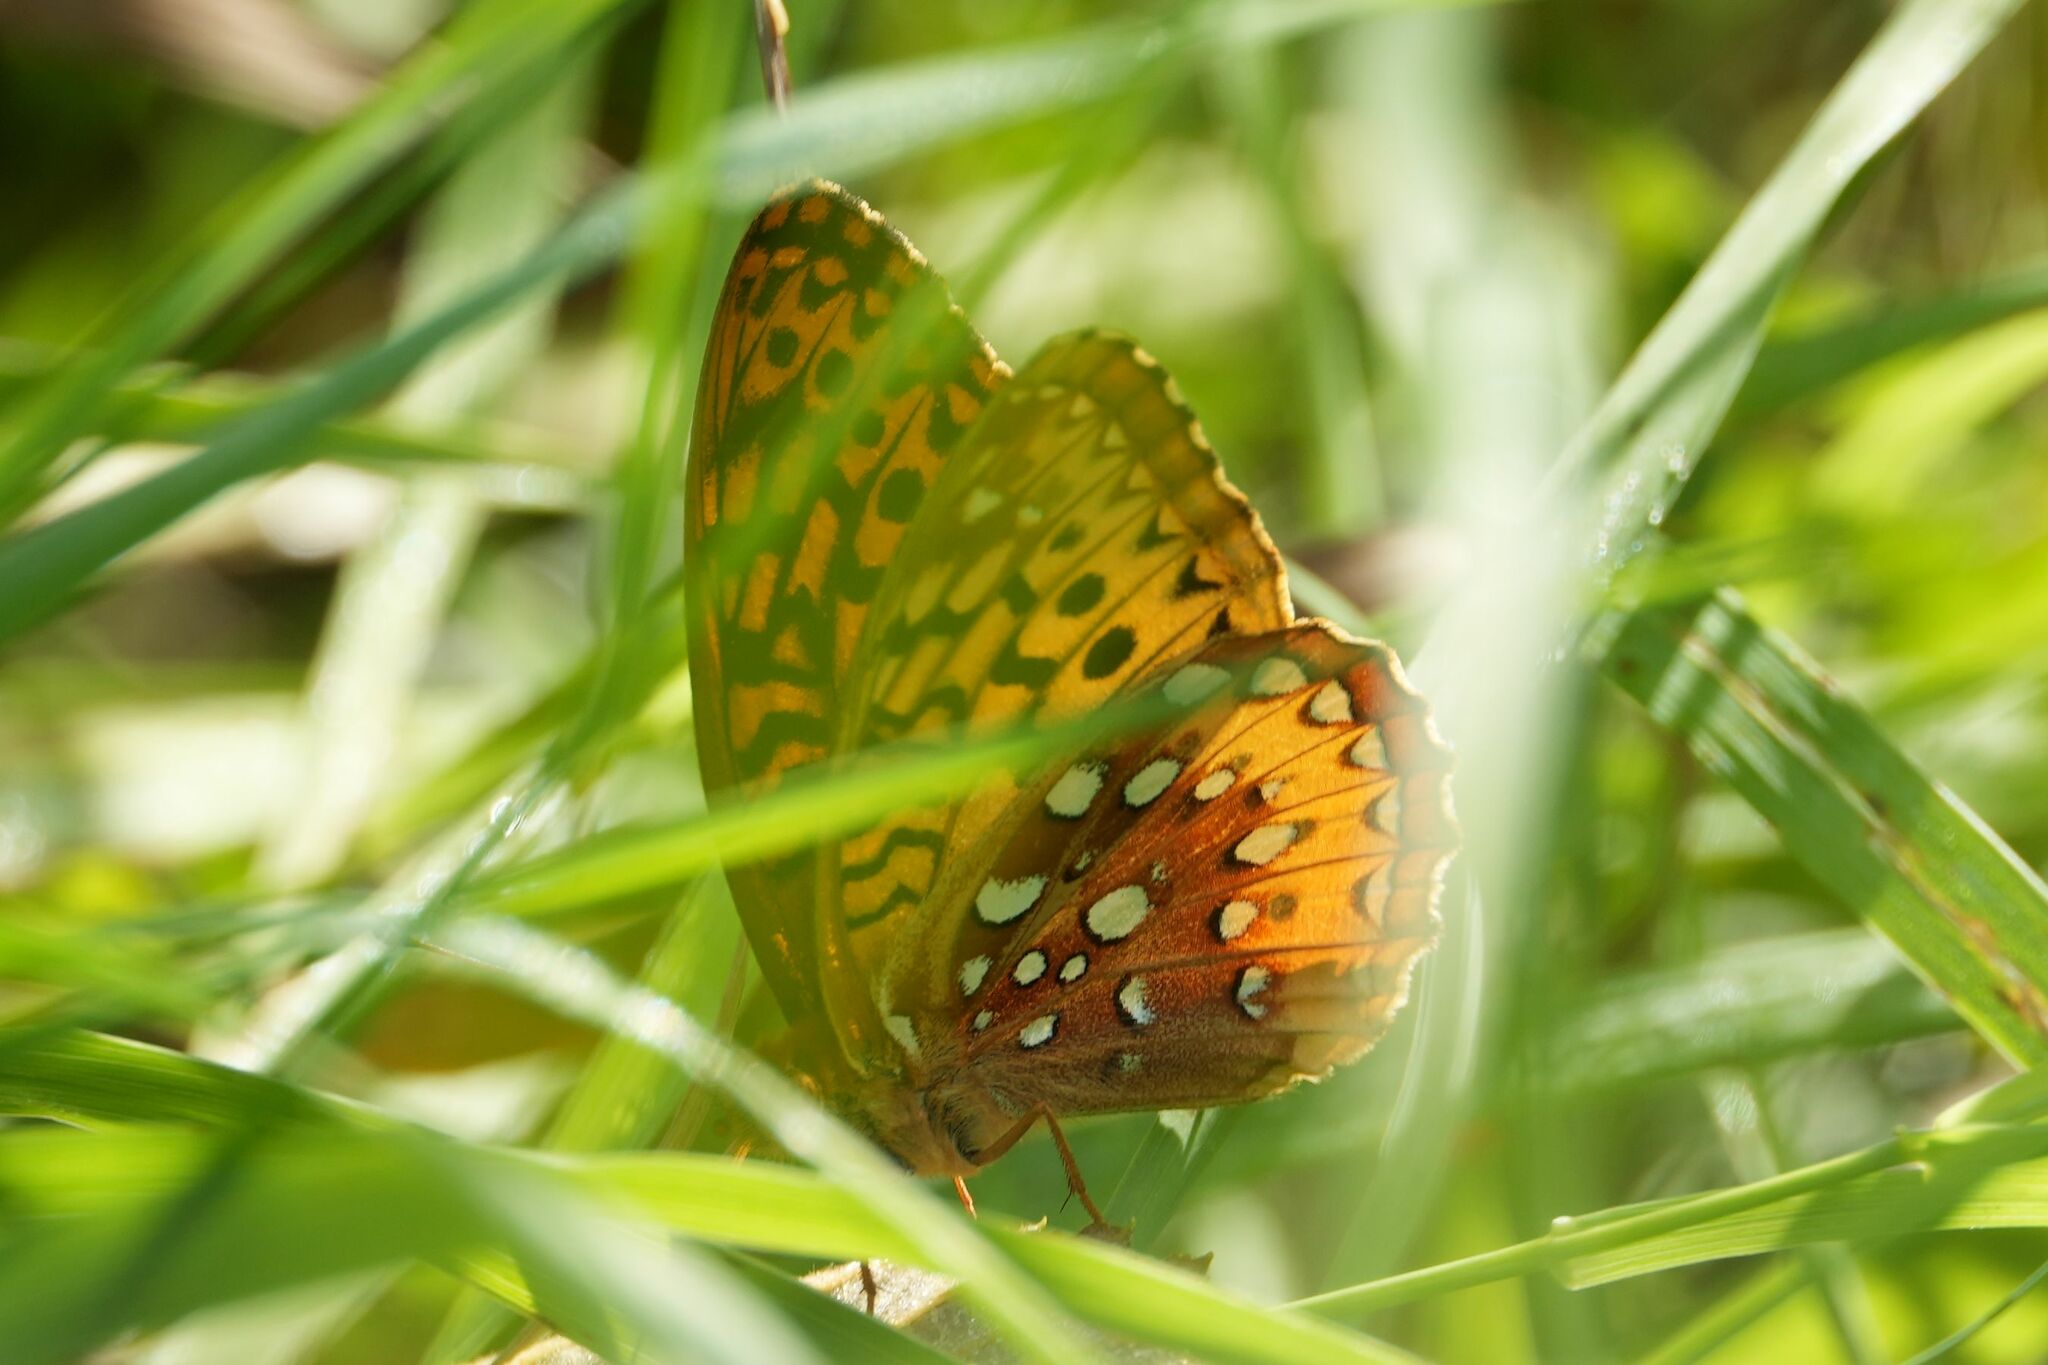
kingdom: Animalia
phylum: Arthropoda
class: Insecta
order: Lepidoptera
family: Nymphalidae
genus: Speyeria
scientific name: Speyeria cybele
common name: Great spangled fritillary
